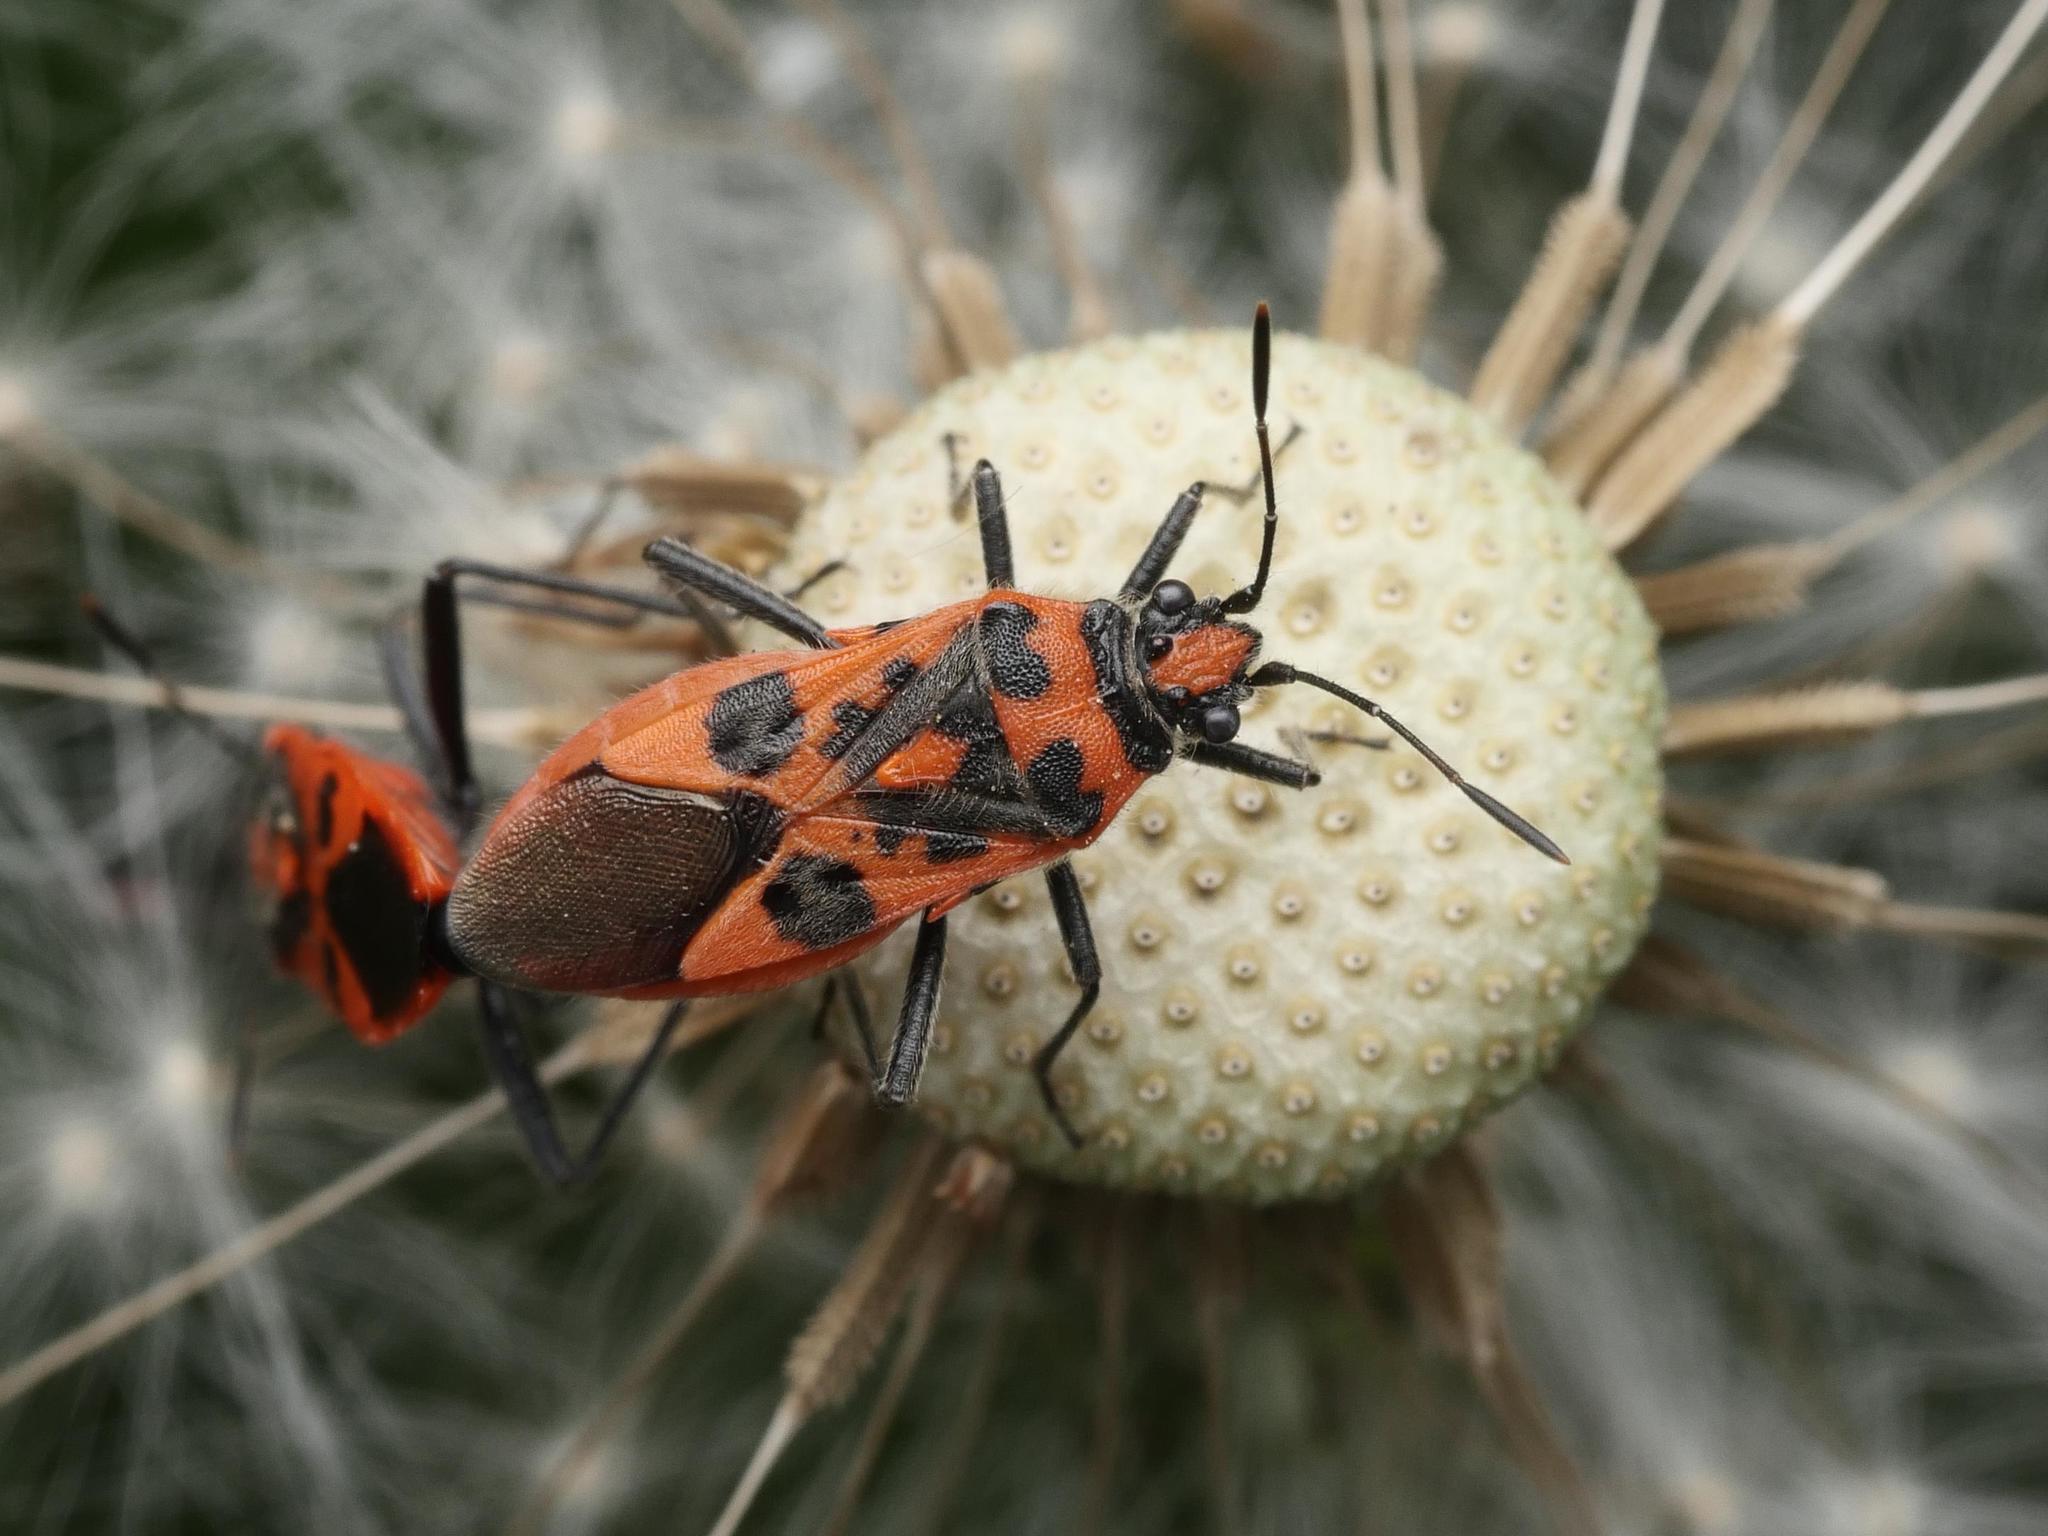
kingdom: Animalia
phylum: Arthropoda
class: Insecta
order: Hemiptera
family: Rhopalidae
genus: Corizus
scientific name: Corizus hyoscyami
